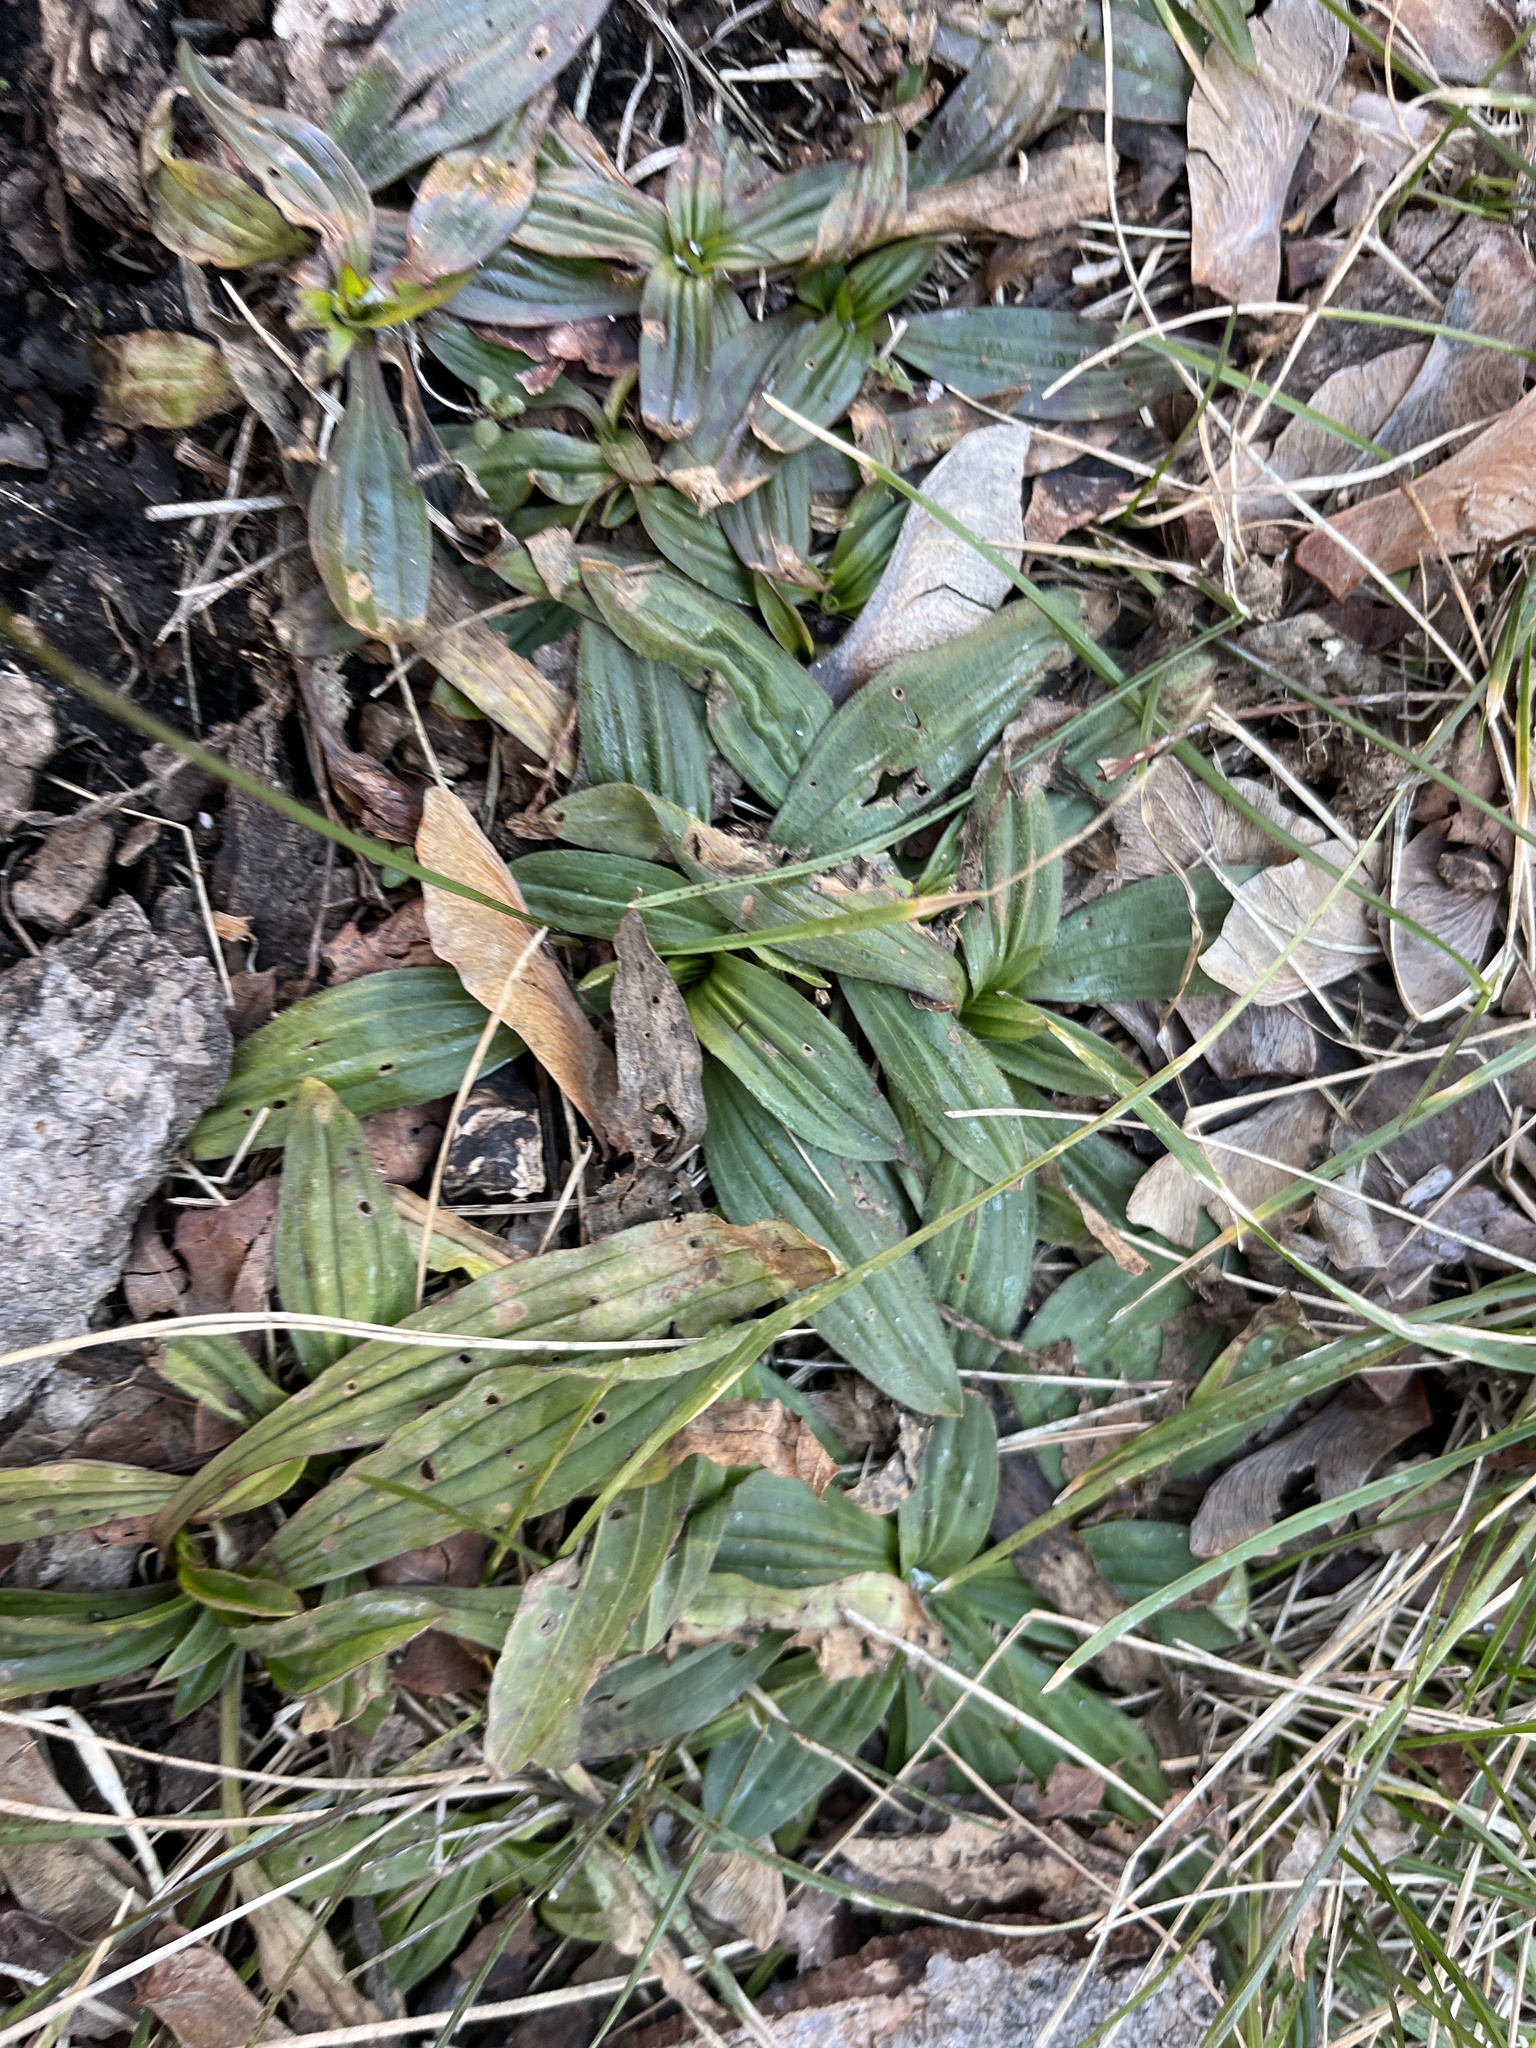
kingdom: Plantae
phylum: Tracheophyta
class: Magnoliopsida
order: Lamiales
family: Plantaginaceae
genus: Plantago
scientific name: Plantago lanceolata
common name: Ribwort plantain
